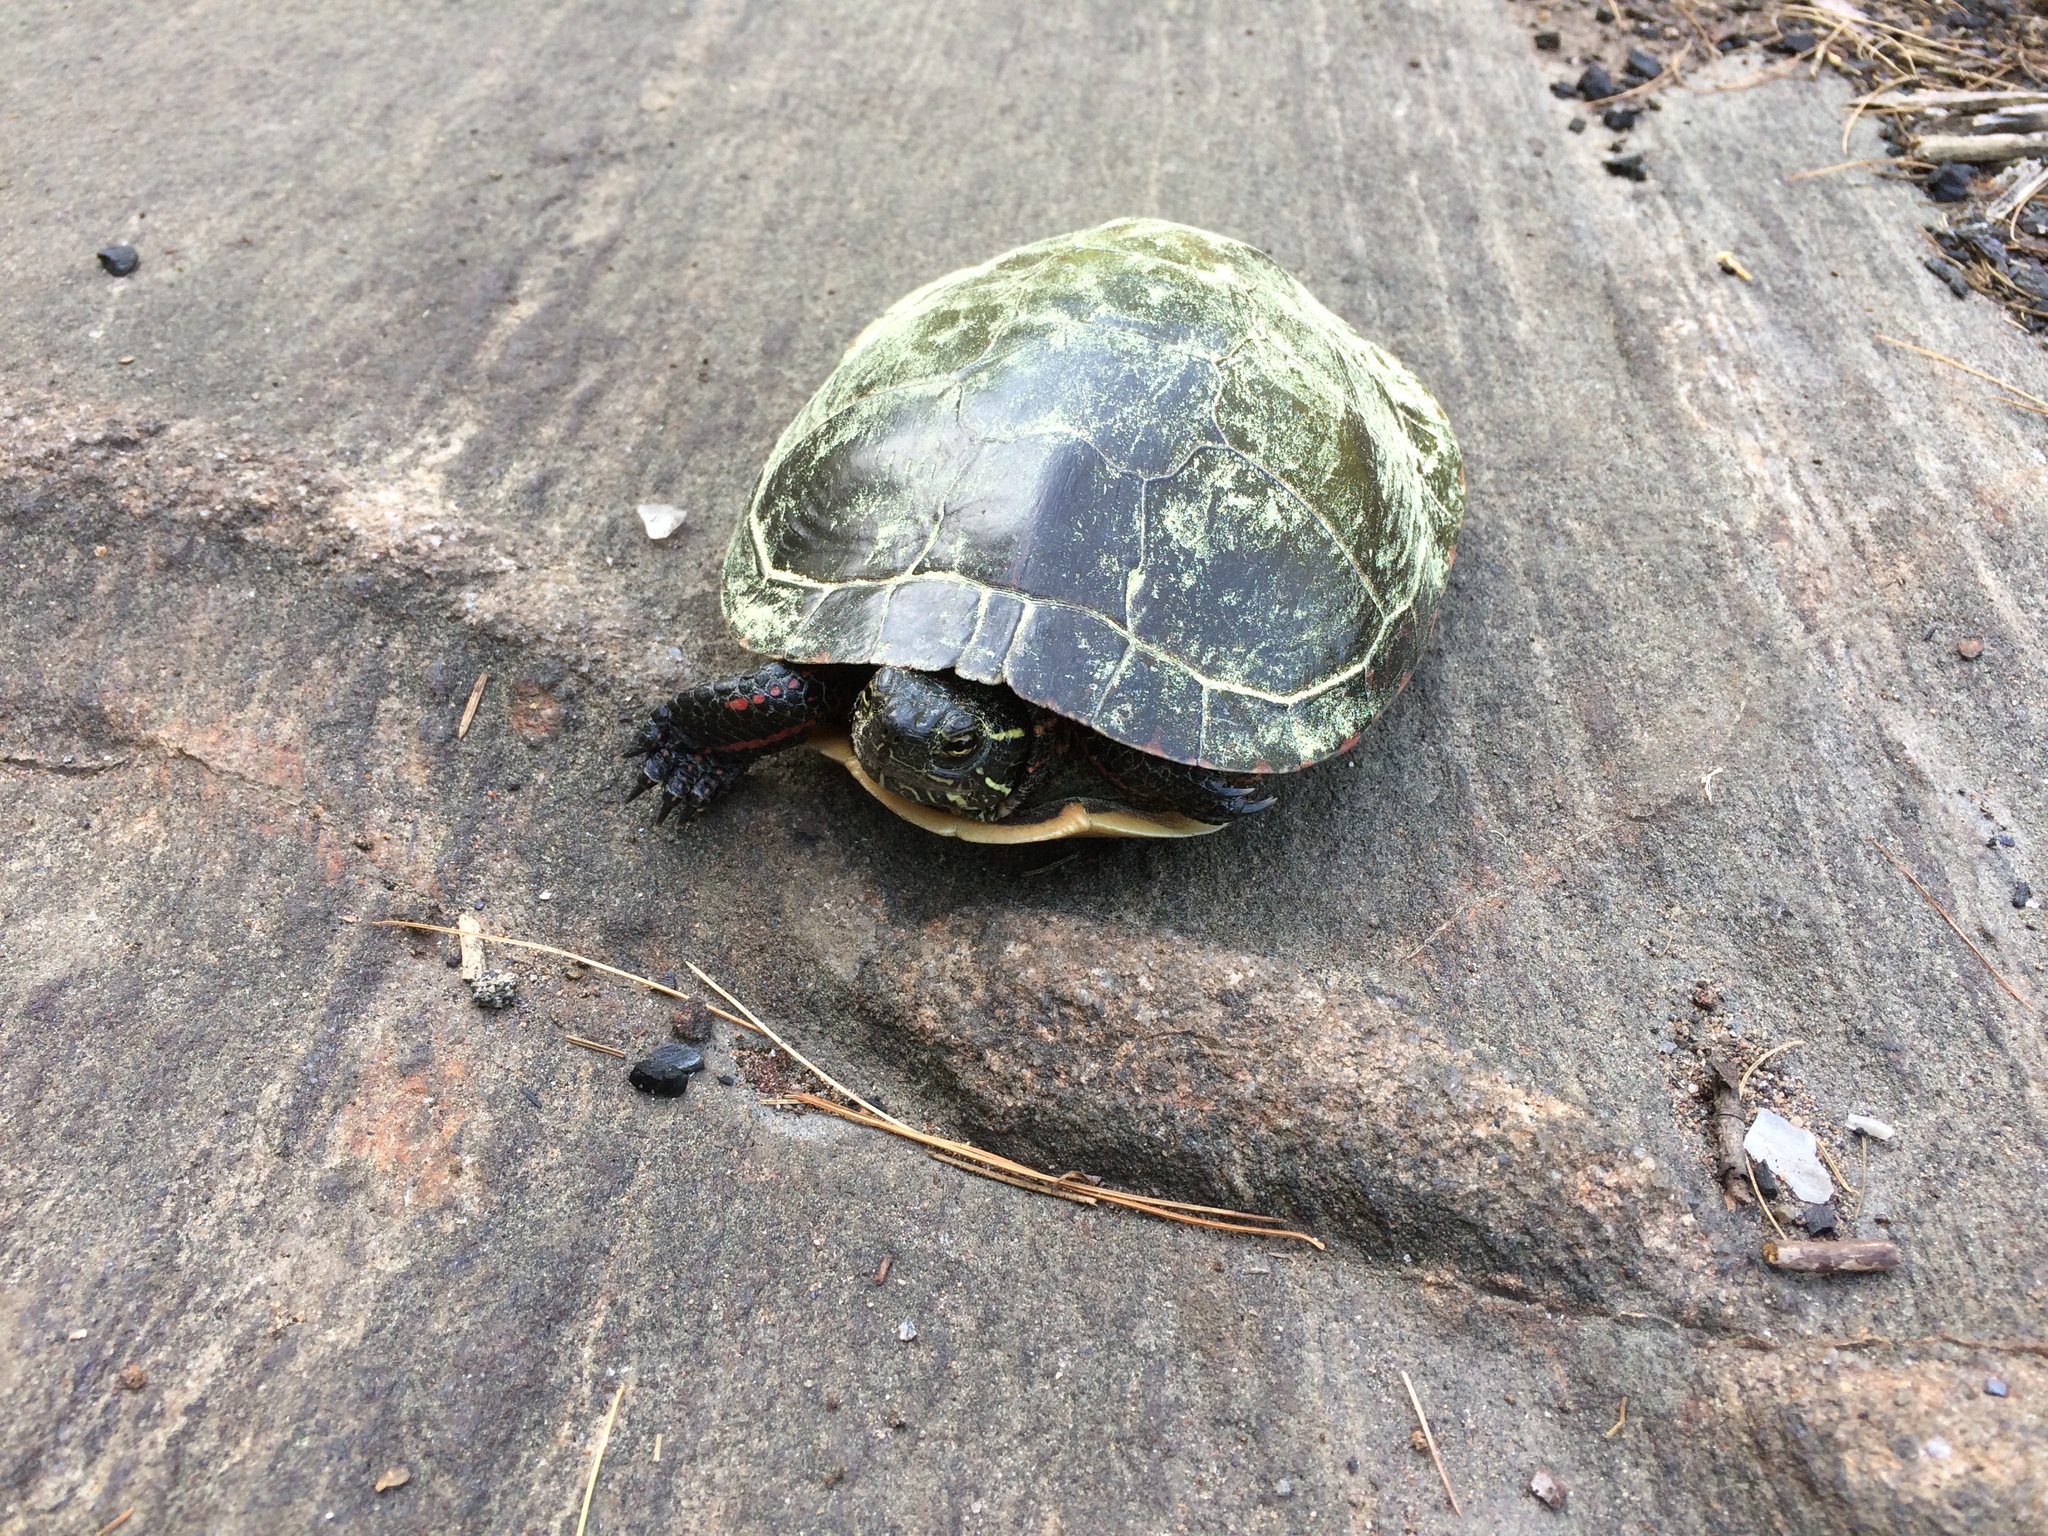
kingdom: Animalia
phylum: Chordata
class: Testudines
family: Emydidae
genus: Chrysemys
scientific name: Chrysemys picta
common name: Painted turtle
